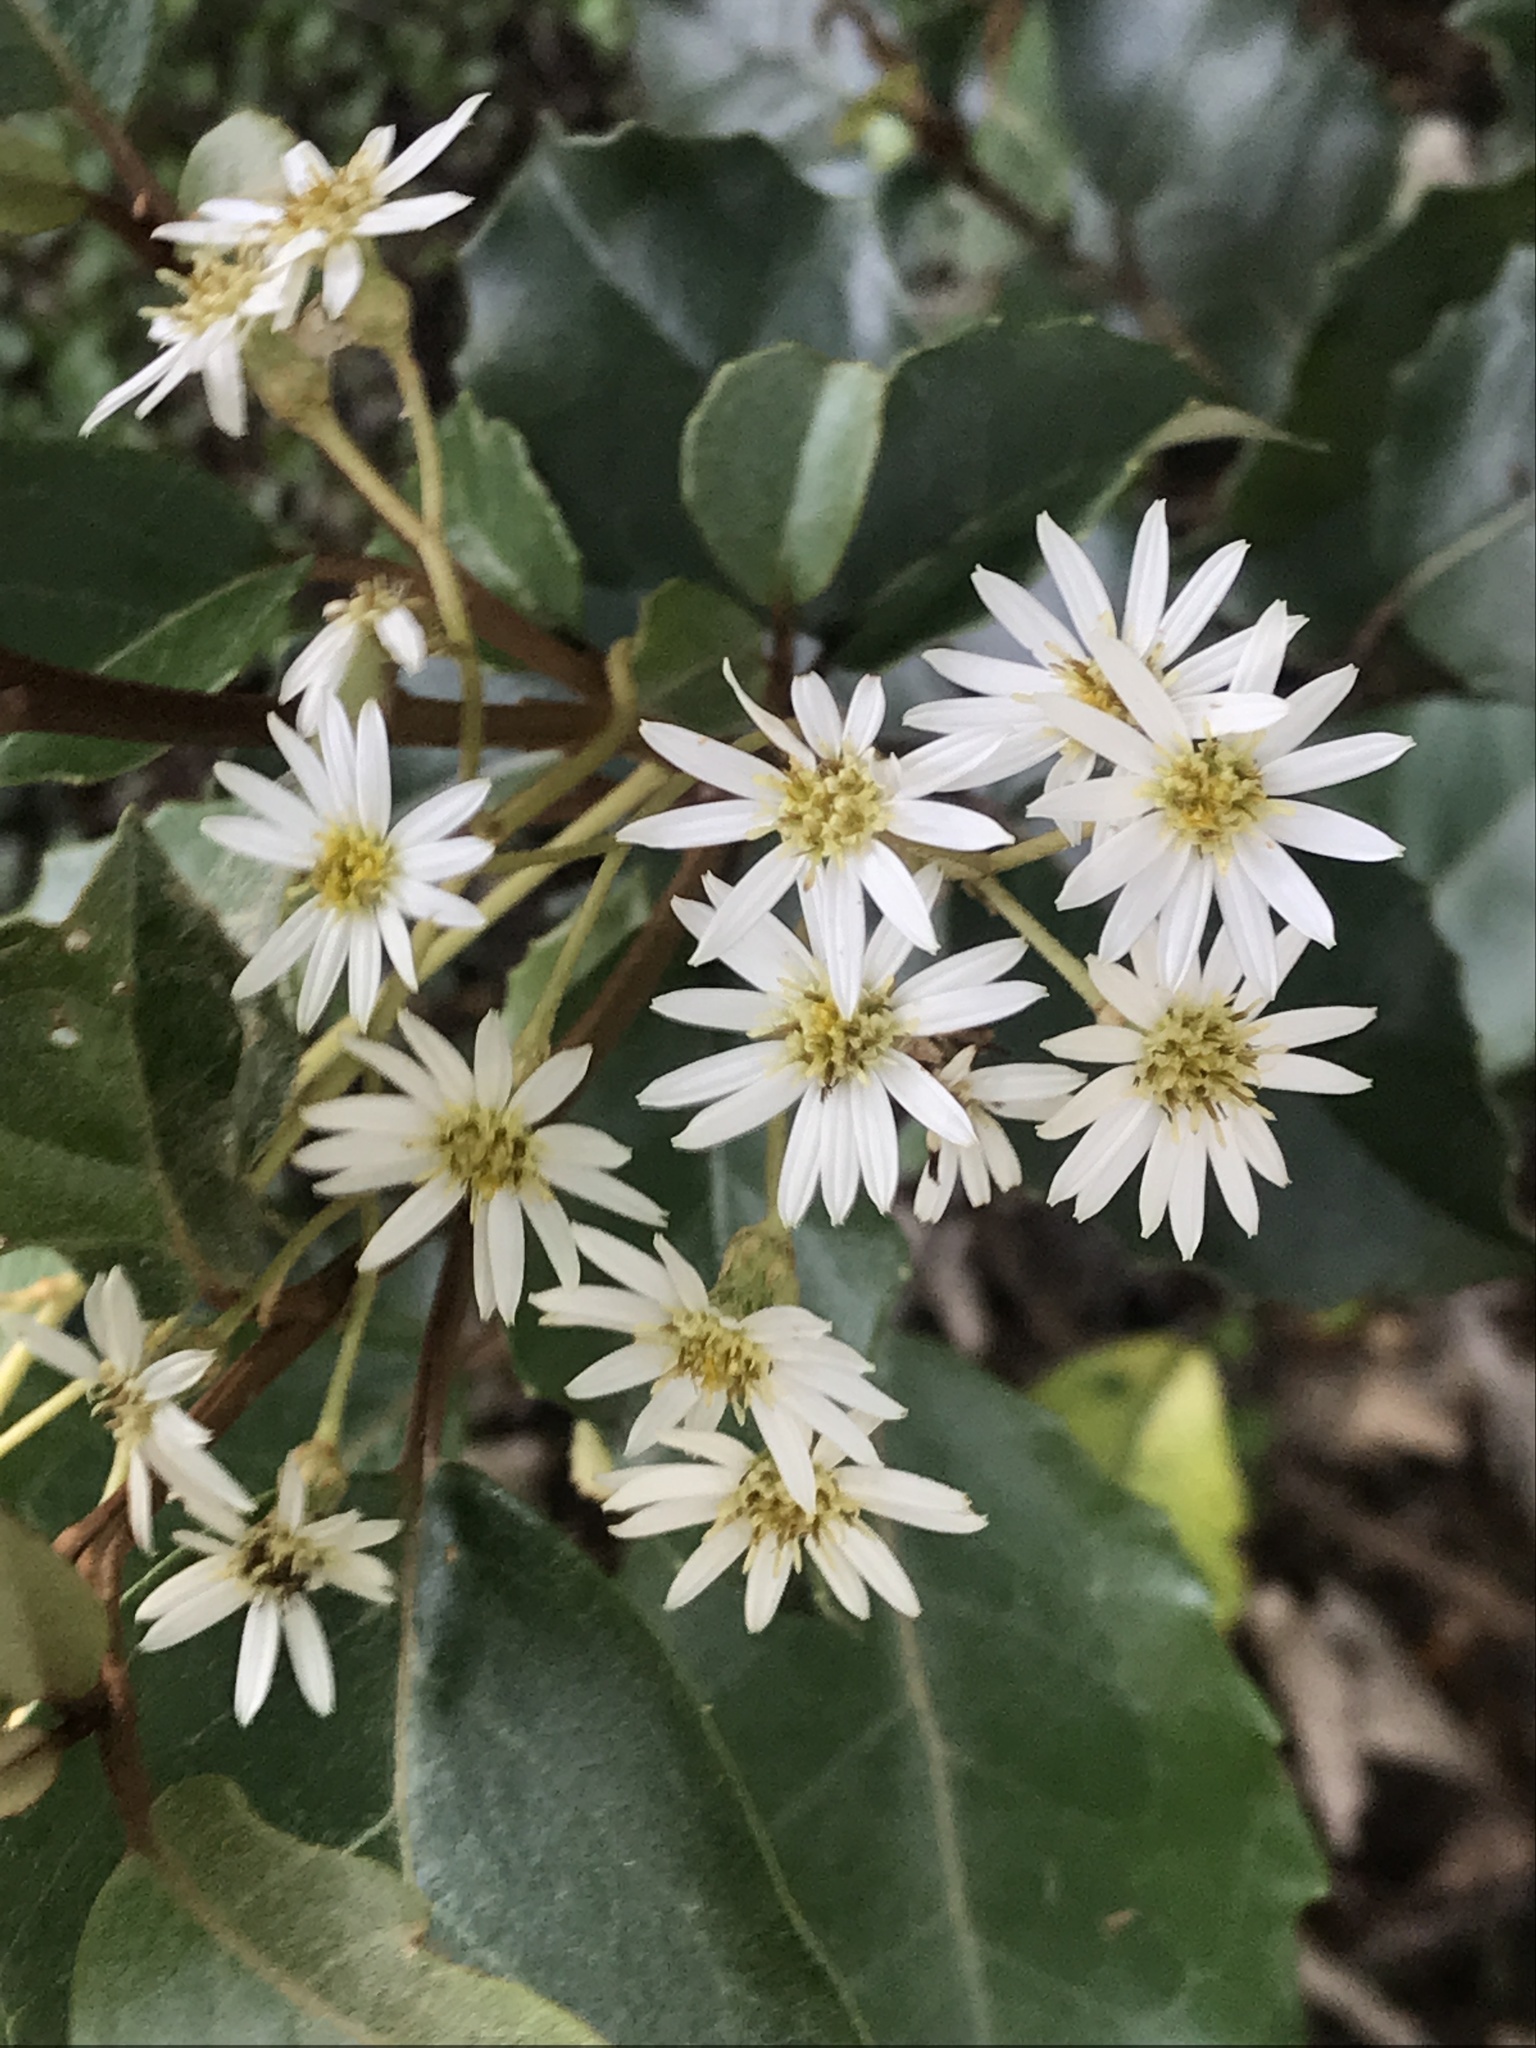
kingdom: Plantae
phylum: Tracheophyta
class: Magnoliopsida
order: Asterales
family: Asteraceae
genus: Olearia
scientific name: Olearia arborescens
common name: Glossy tree daisy
